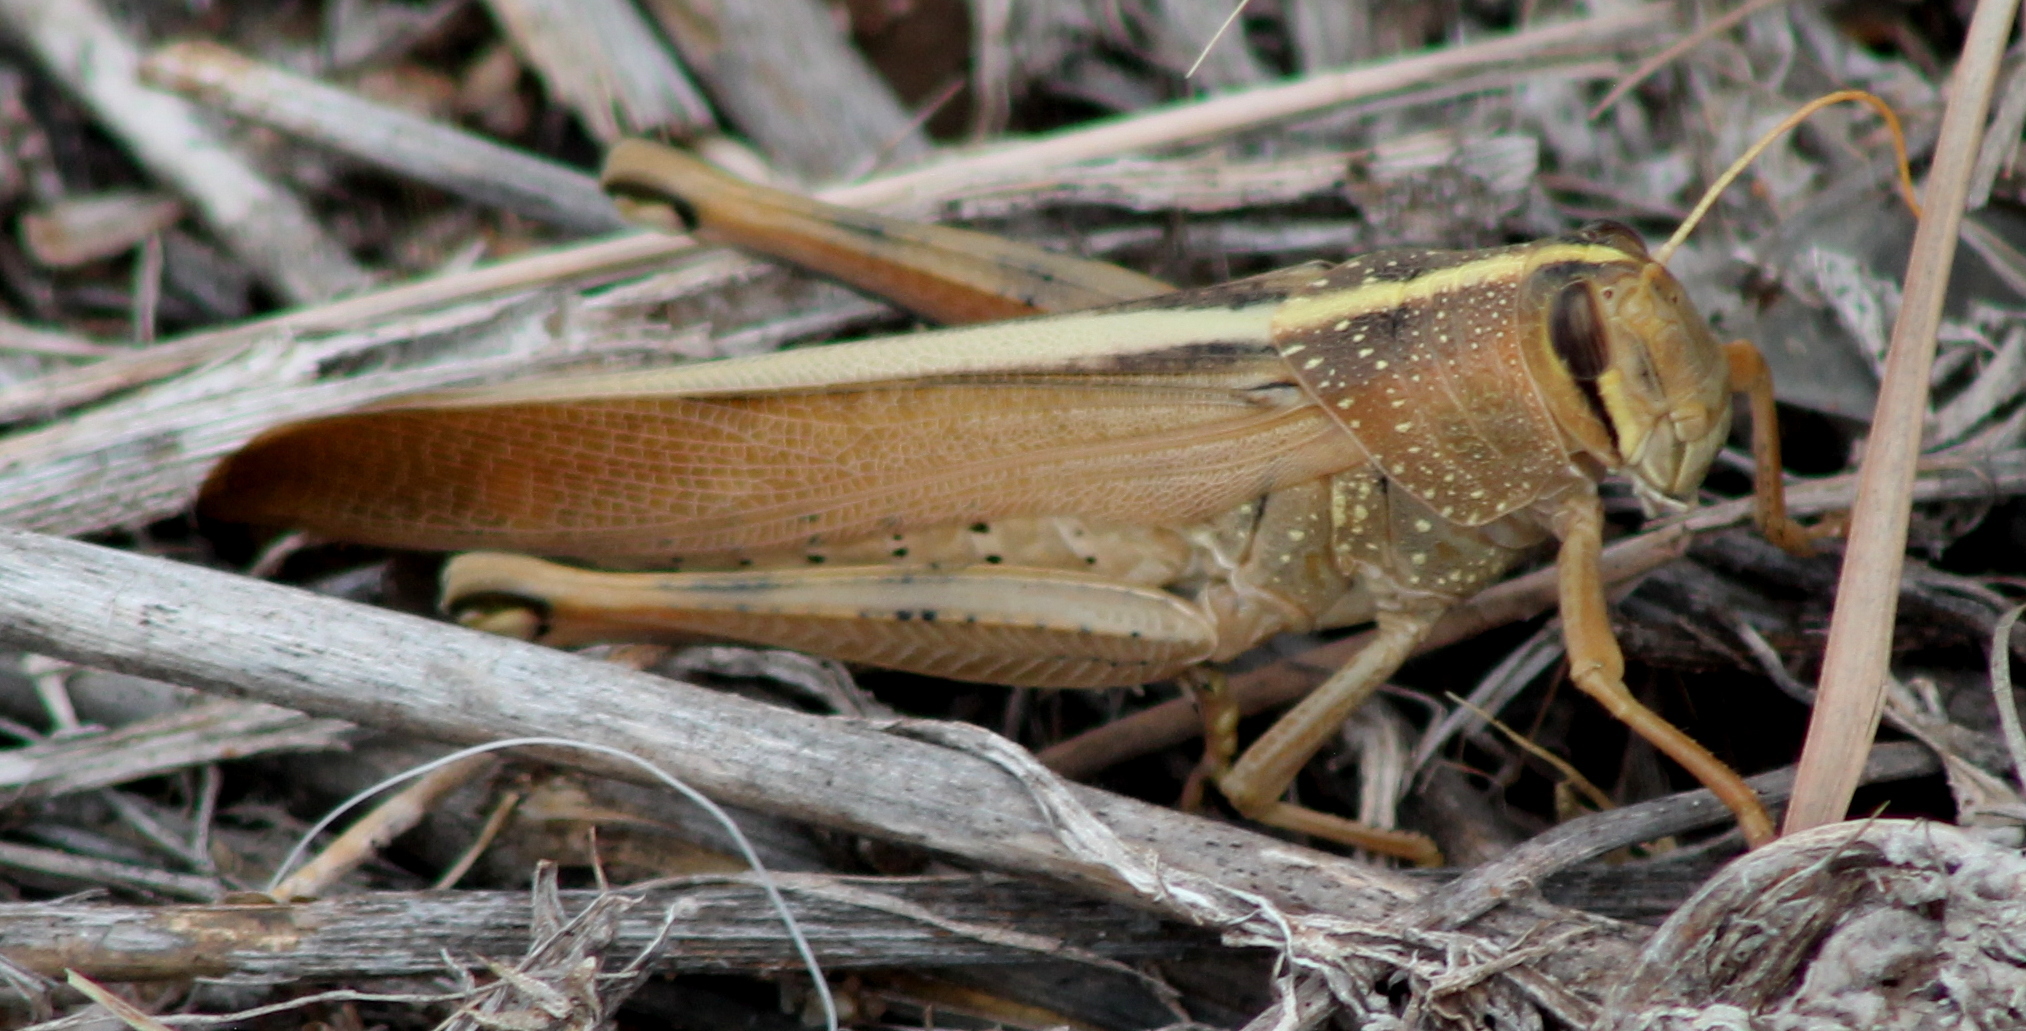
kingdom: Animalia
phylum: Arthropoda
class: Insecta
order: Orthoptera
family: Acrididae
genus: Schistocerca
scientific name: Schistocerca lineata
